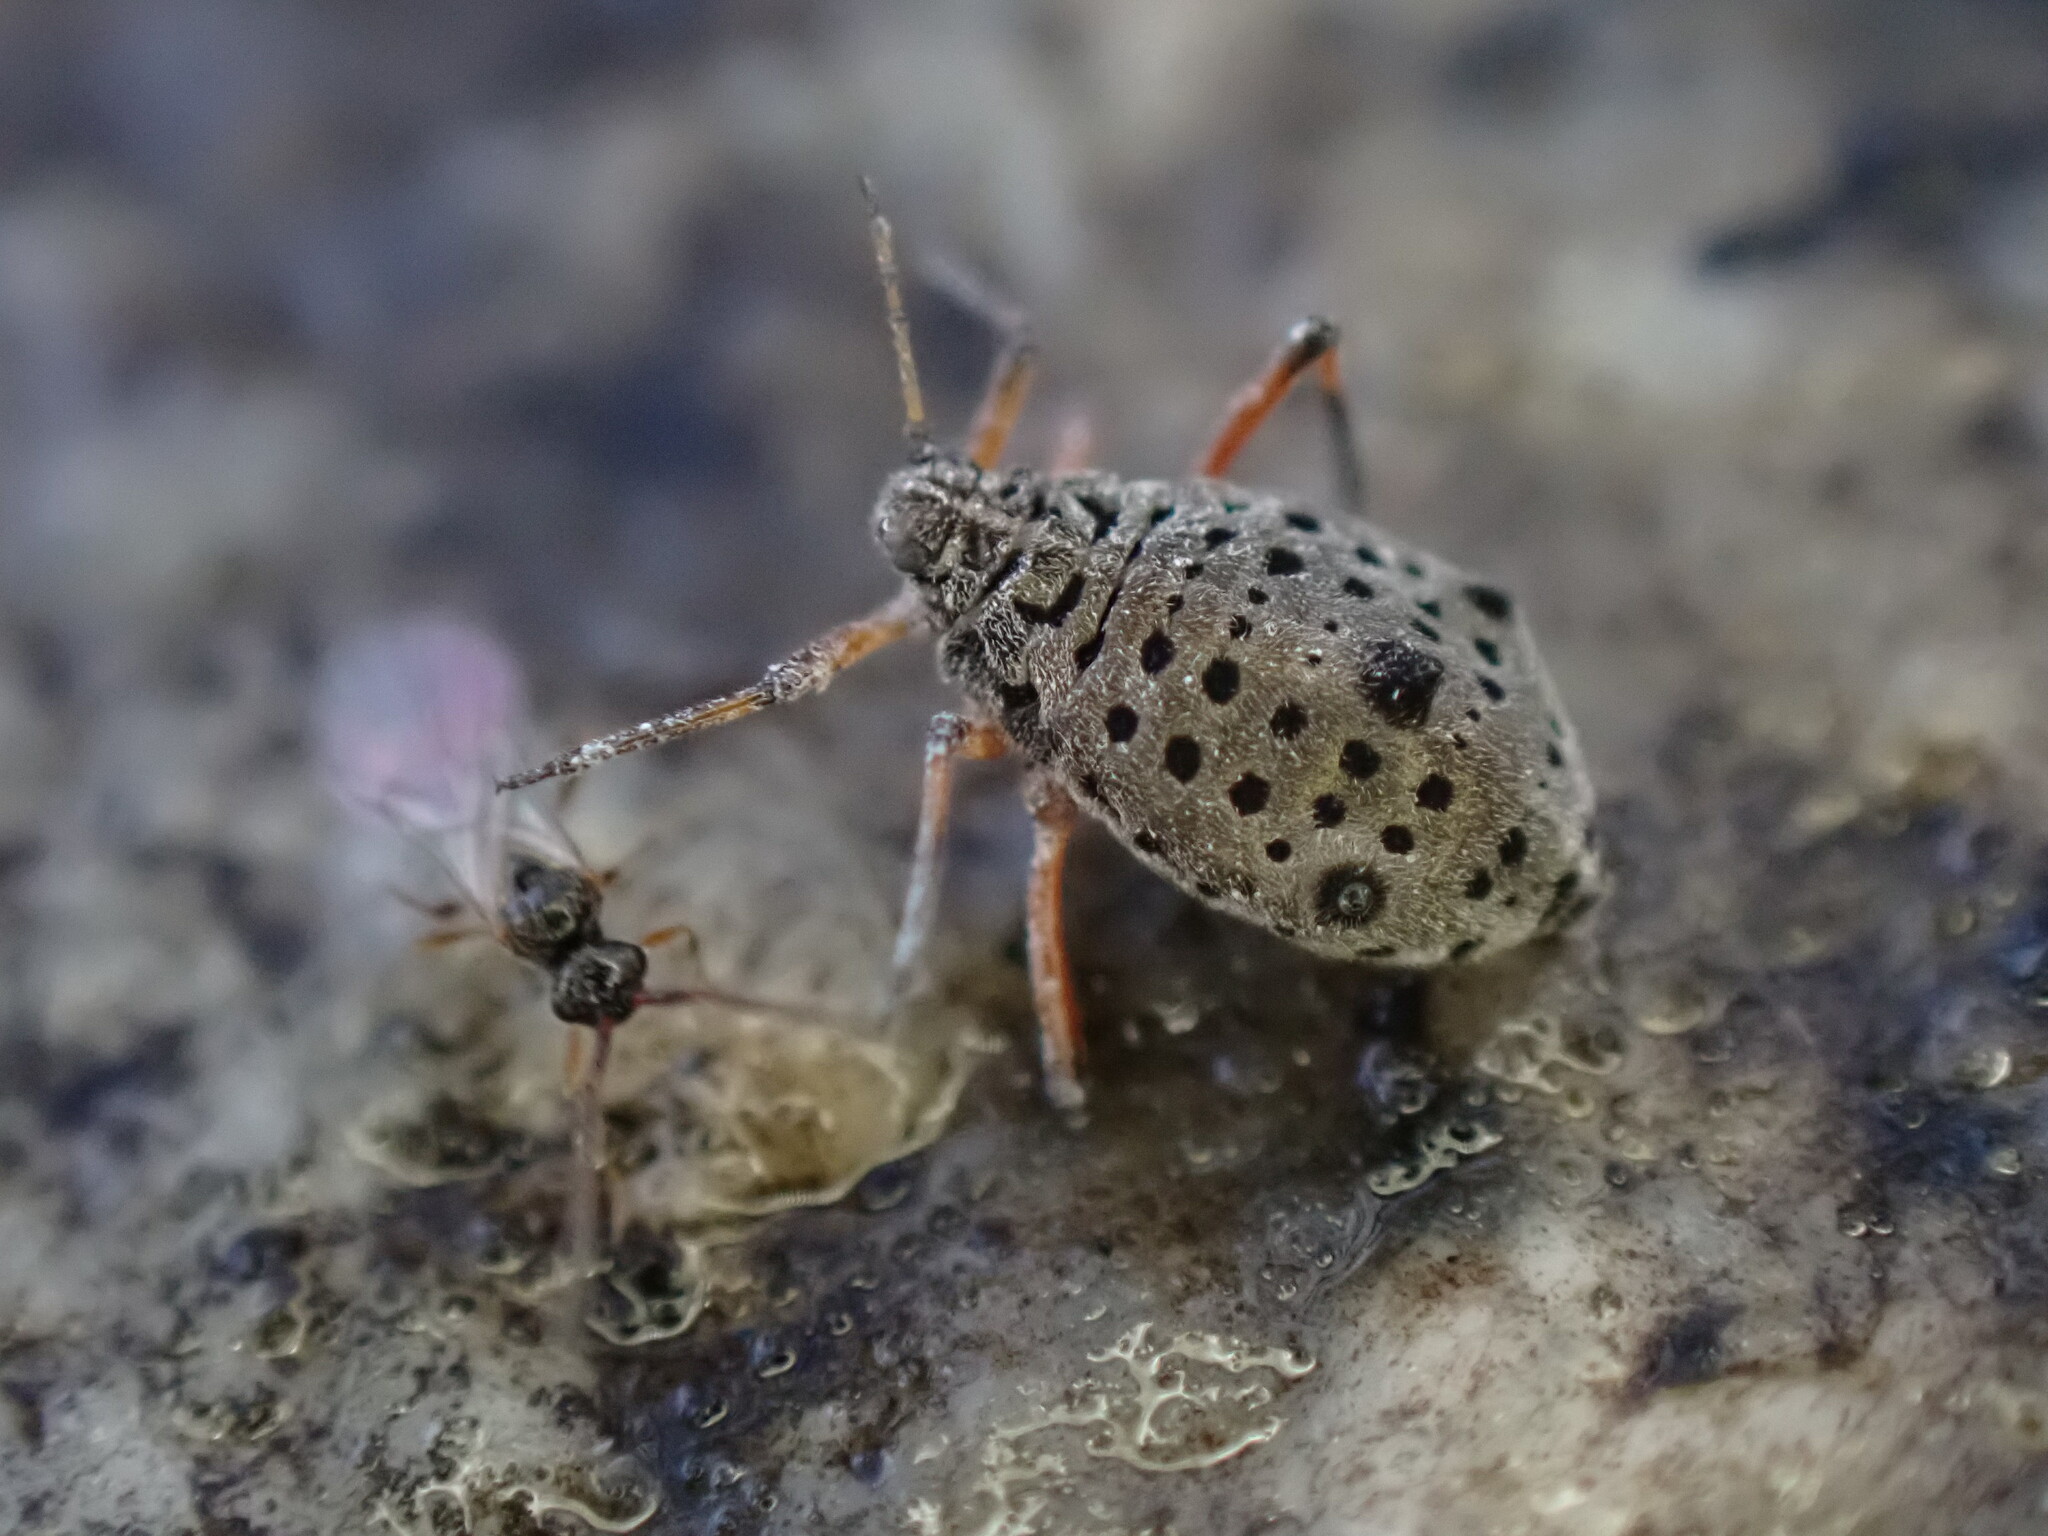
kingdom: Animalia
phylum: Arthropoda
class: Insecta
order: Hemiptera
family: Aphididae
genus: Tuberolachnus
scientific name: Tuberolachnus salignus
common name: Giant willow aphid
